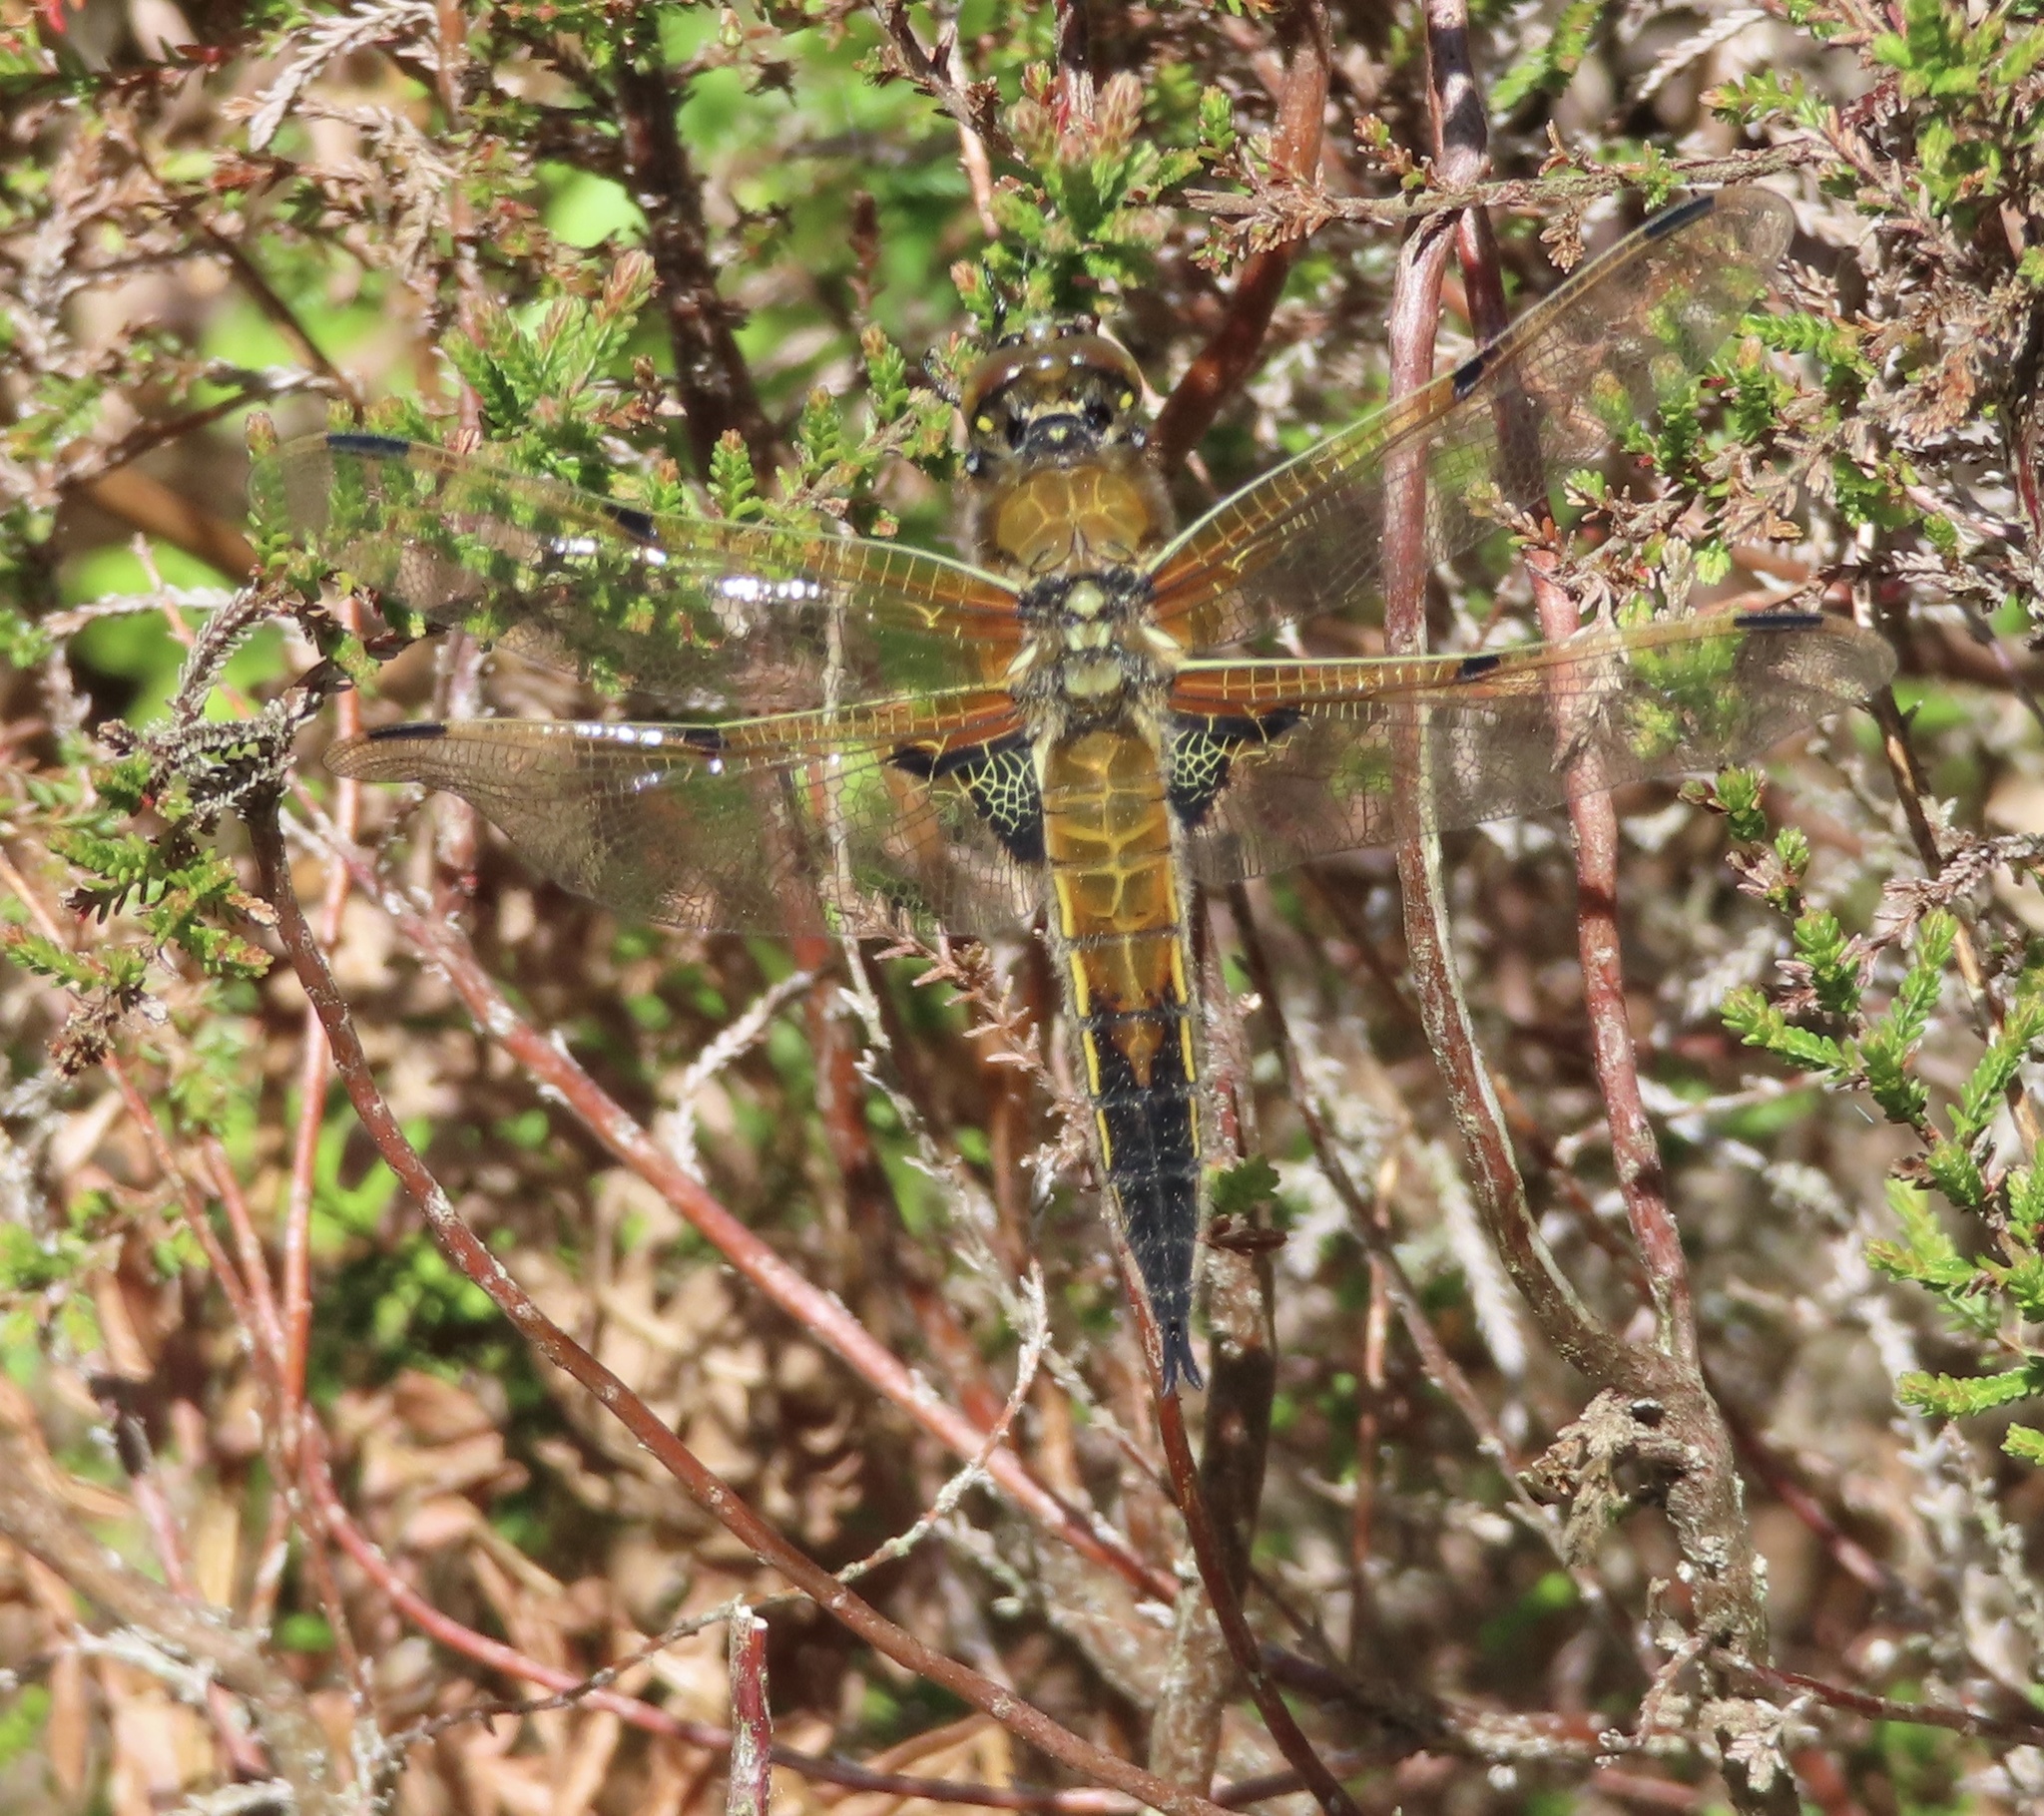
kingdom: Animalia
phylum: Arthropoda
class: Insecta
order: Odonata
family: Libellulidae
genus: Libellula
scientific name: Libellula quadrimaculata
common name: Four-spotted chaser
